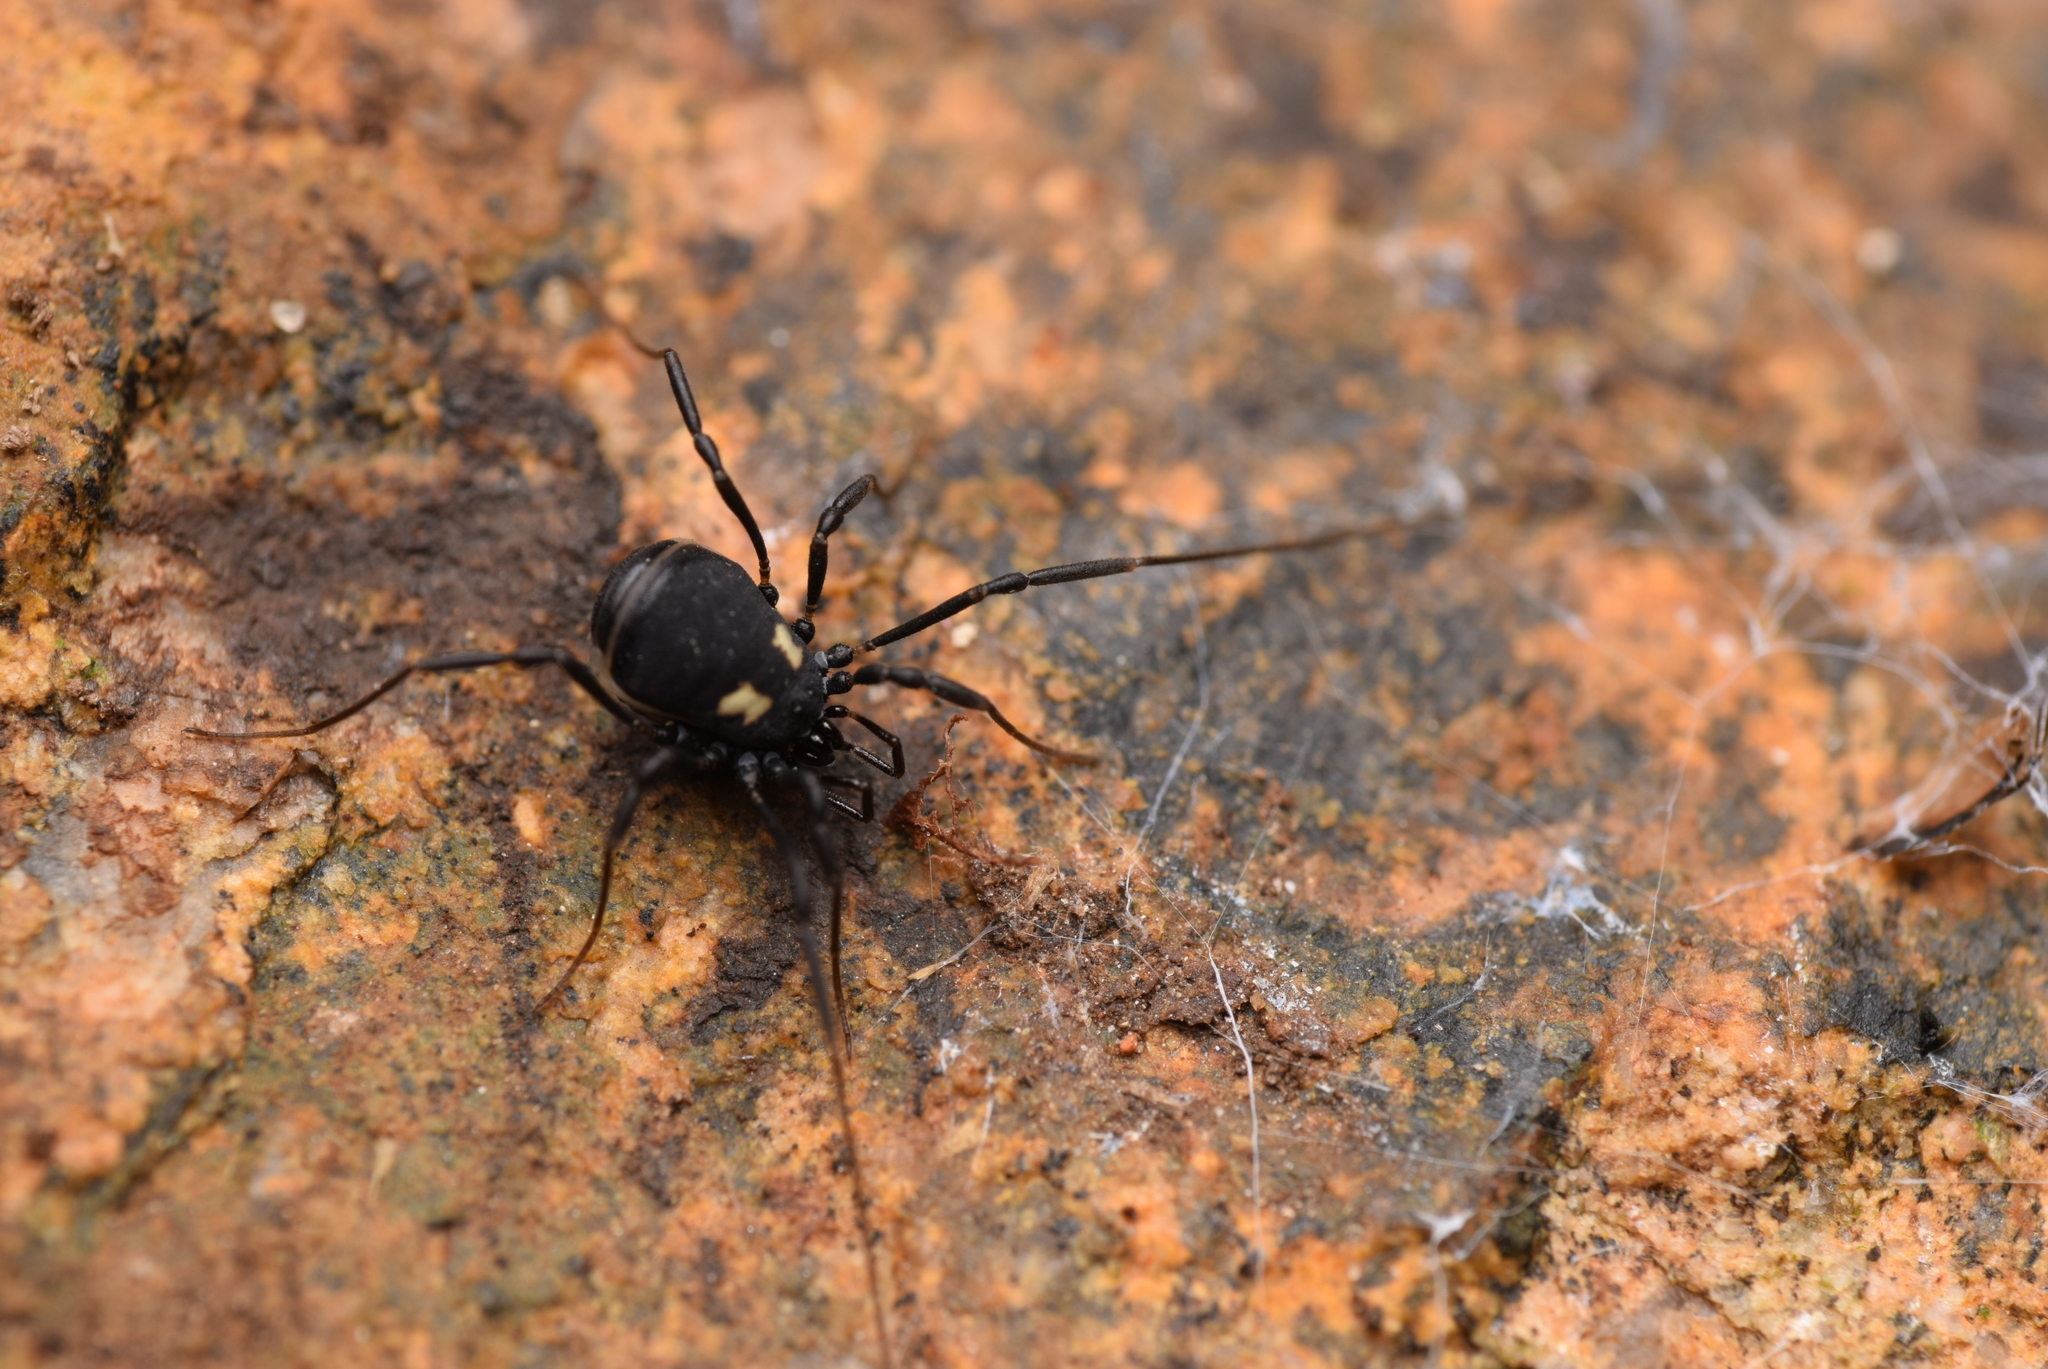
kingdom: Animalia
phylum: Arthropoda
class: Arachnida
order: Opiliones
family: Nemastomatidae
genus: Nemastoma
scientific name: Nemastoma bimaculatum
